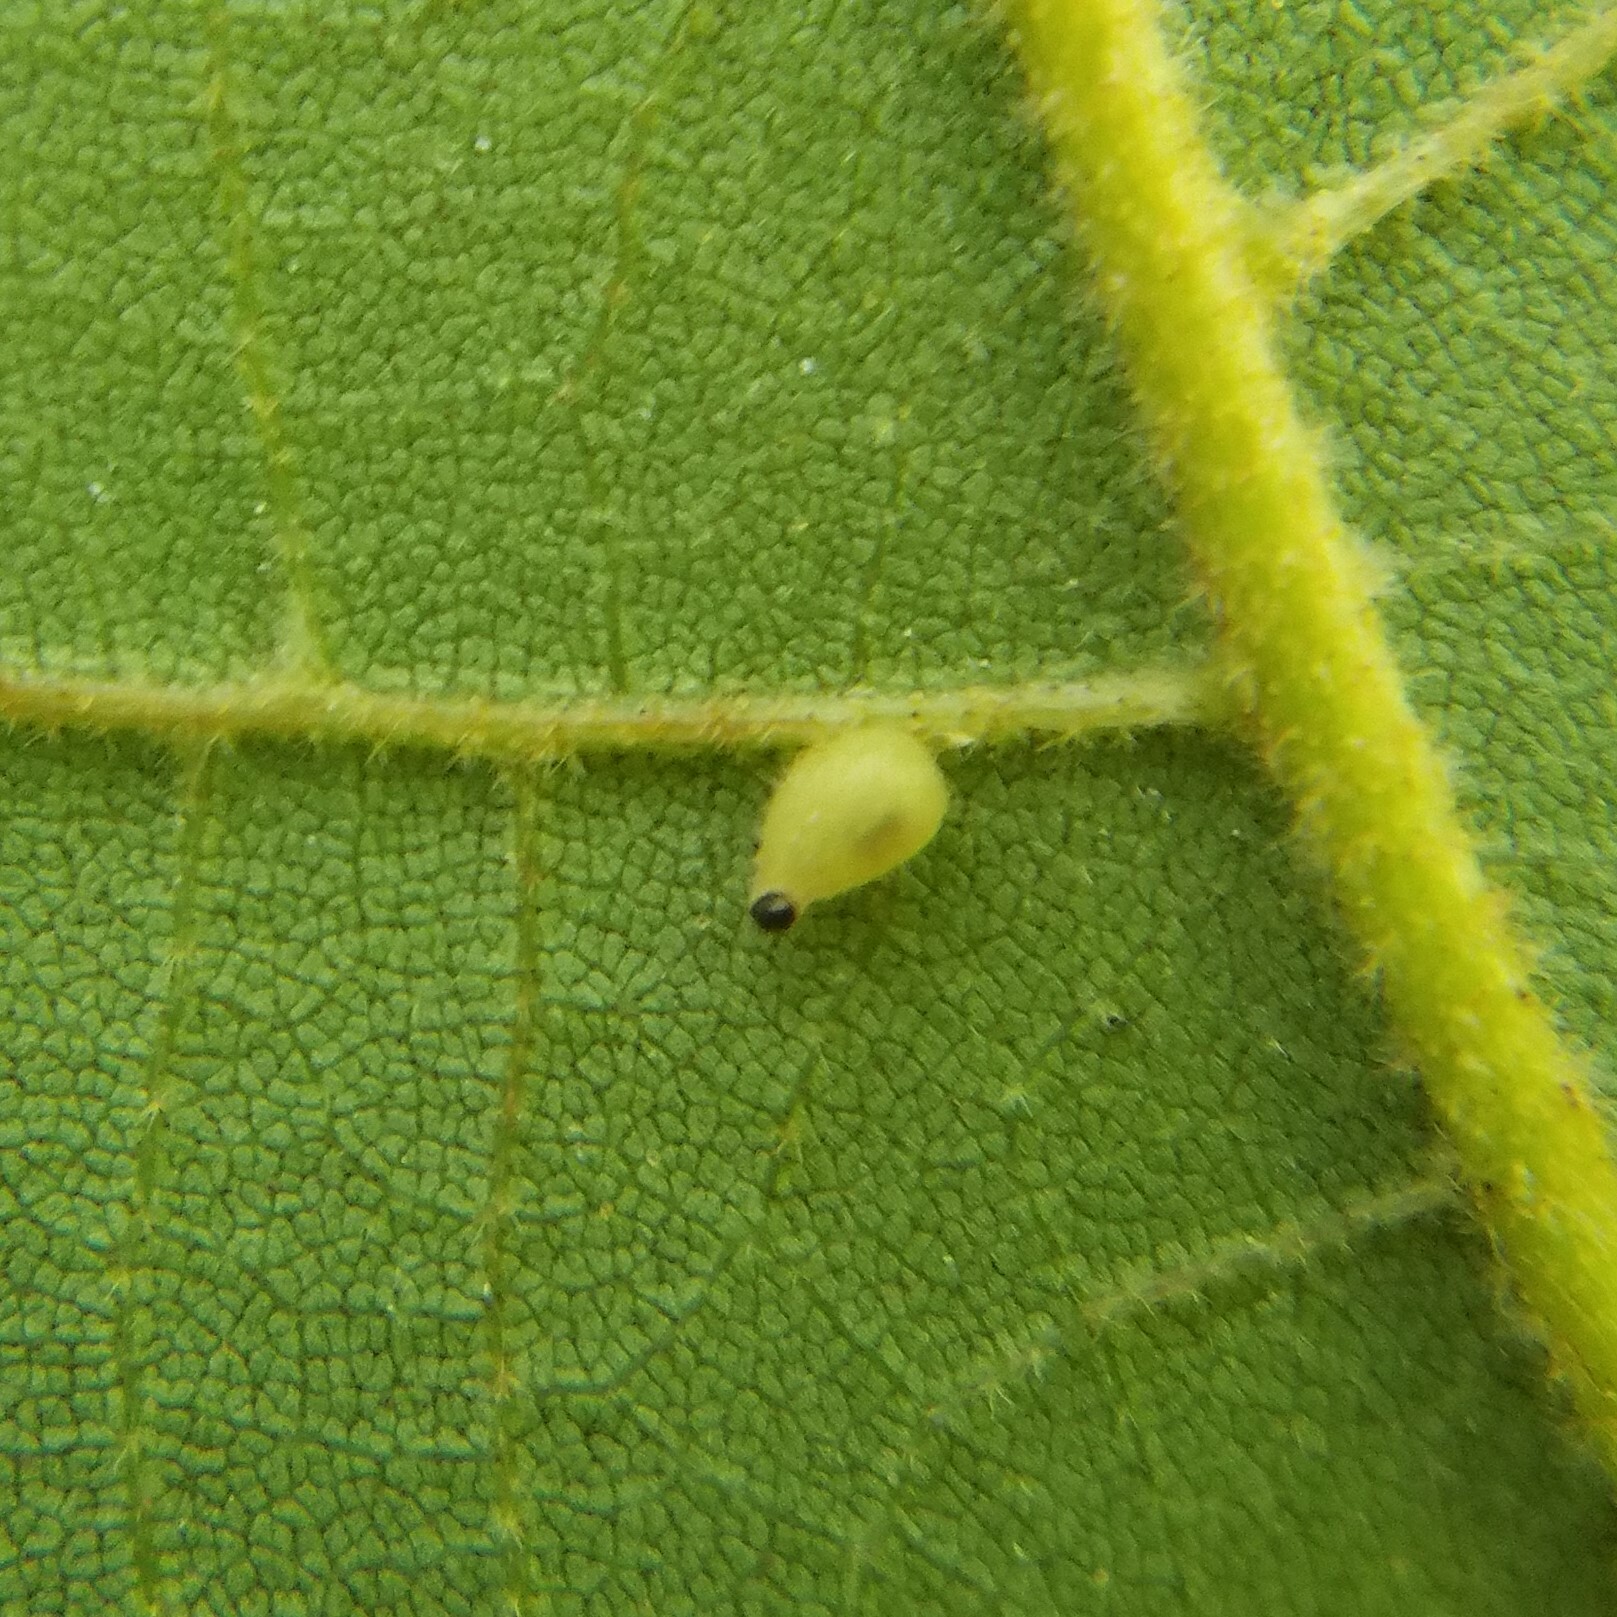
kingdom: Animalia
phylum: Arthropoda
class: Insecta
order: Diptera
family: Cecidomyiidae
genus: Caryomyia
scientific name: Caryomyia eumaris
